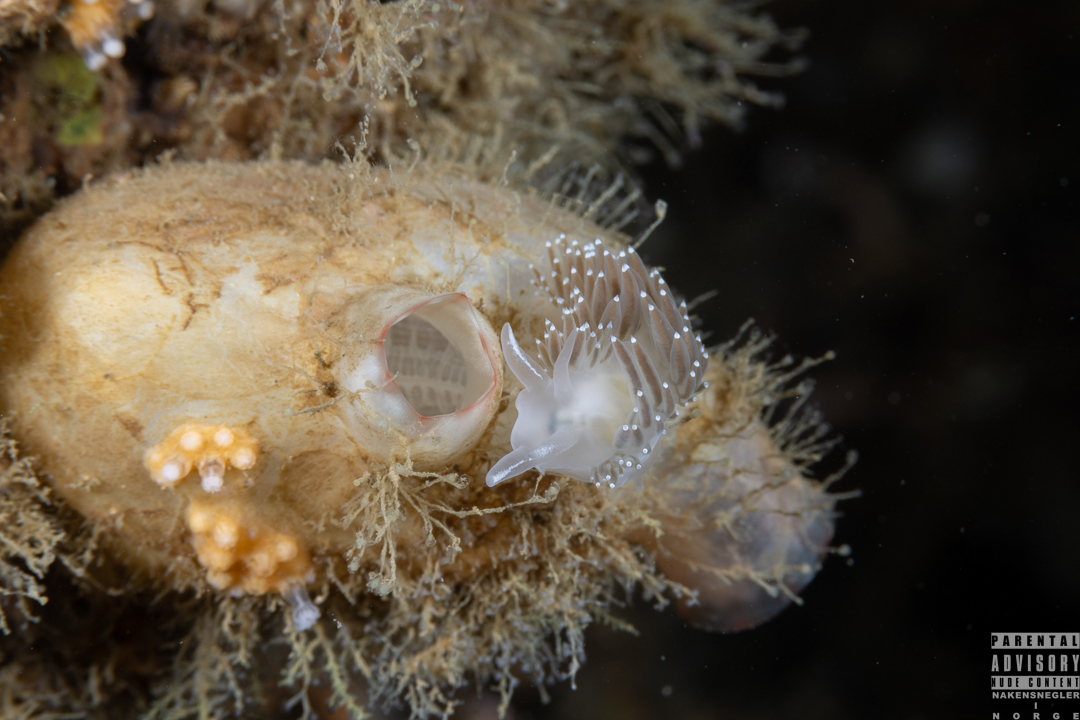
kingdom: Animalia
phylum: Mollusca
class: Gastropoda
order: Nudibranchia
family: Coryphellidae
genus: Coryphella
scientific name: Coryphella verrucosa
